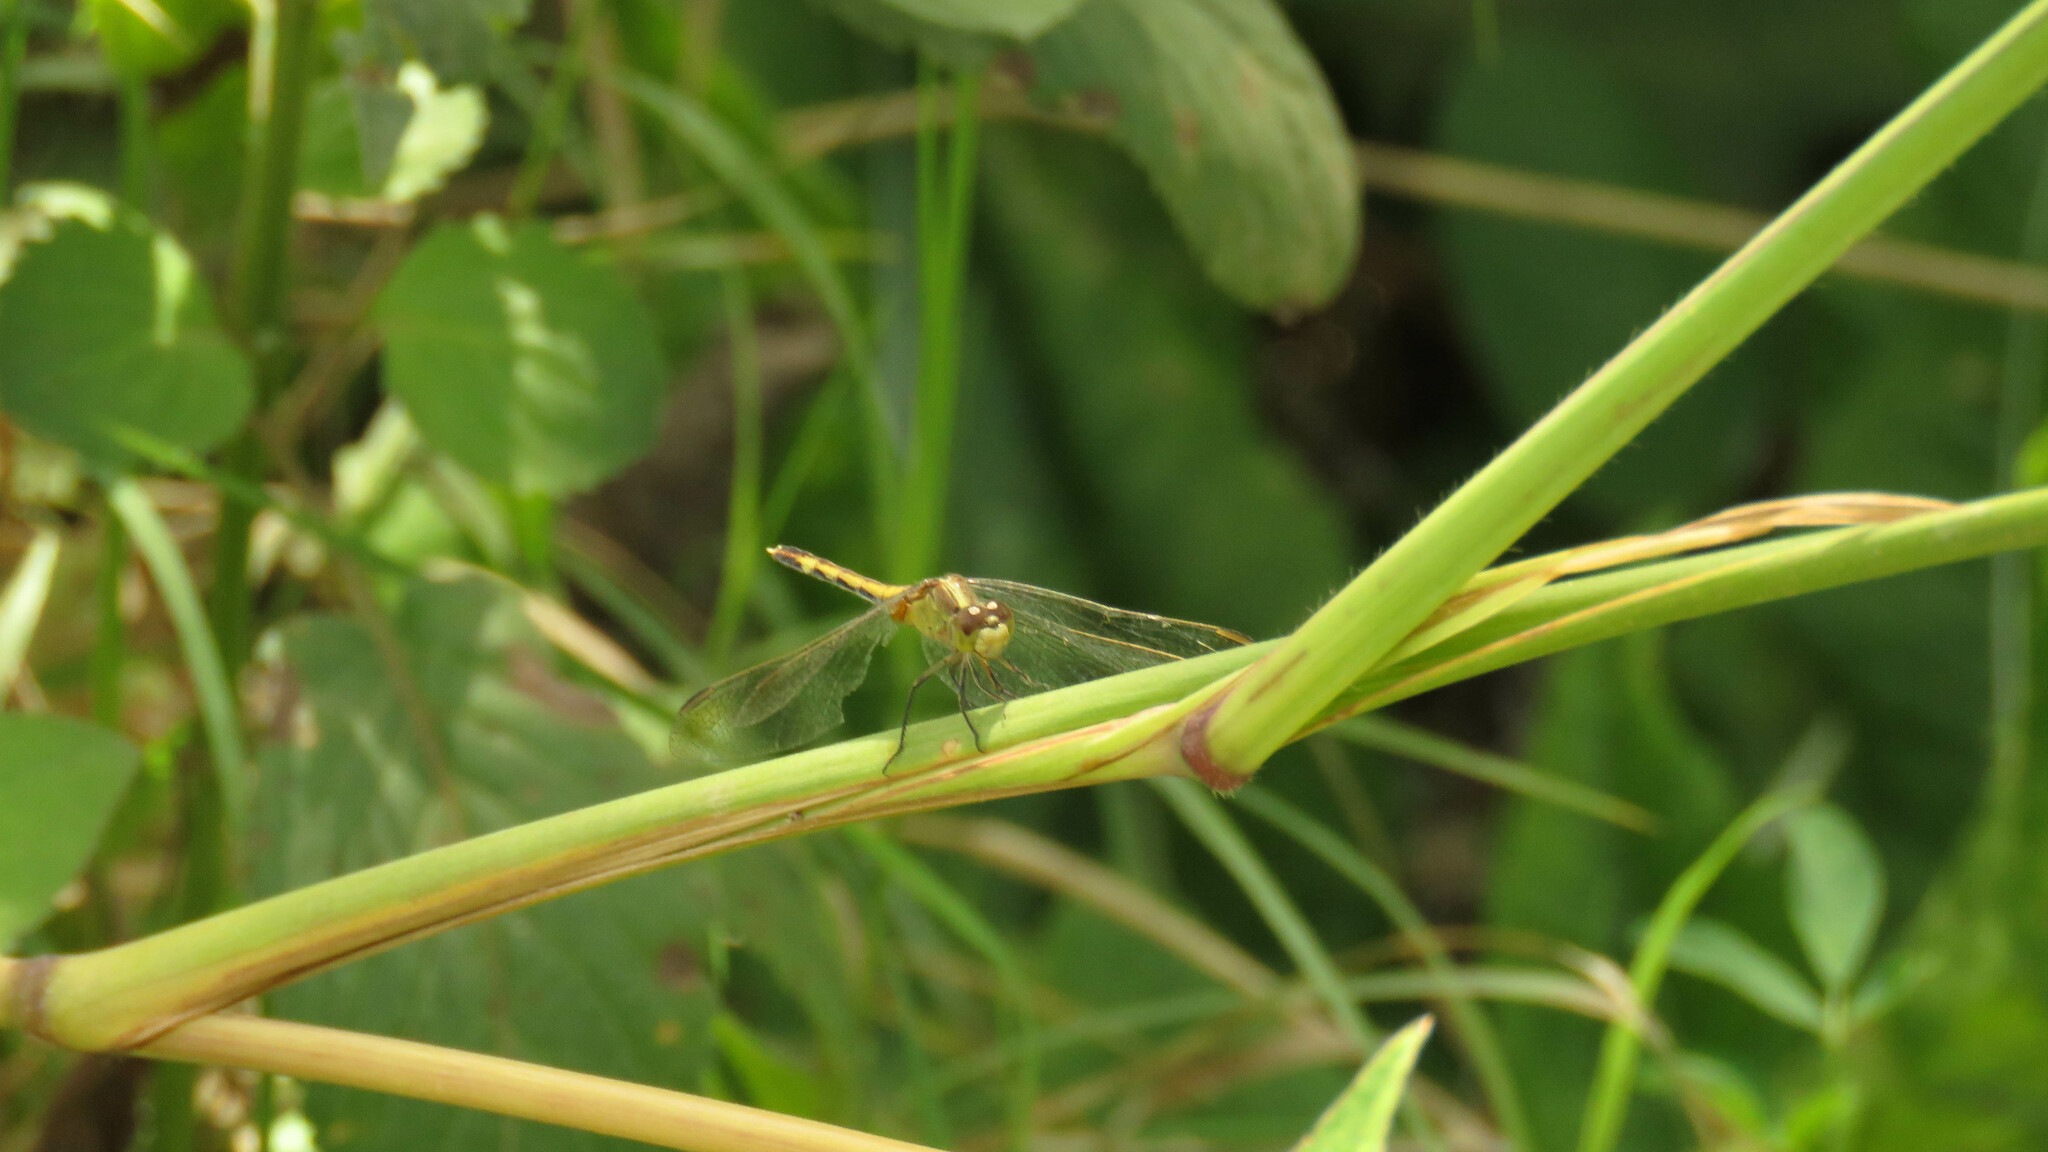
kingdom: Animalia
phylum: Arthropoda
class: Insecta
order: Odonata
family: Libellulidae
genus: Erythrodiplax
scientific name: Erythrodiplax nigricans
